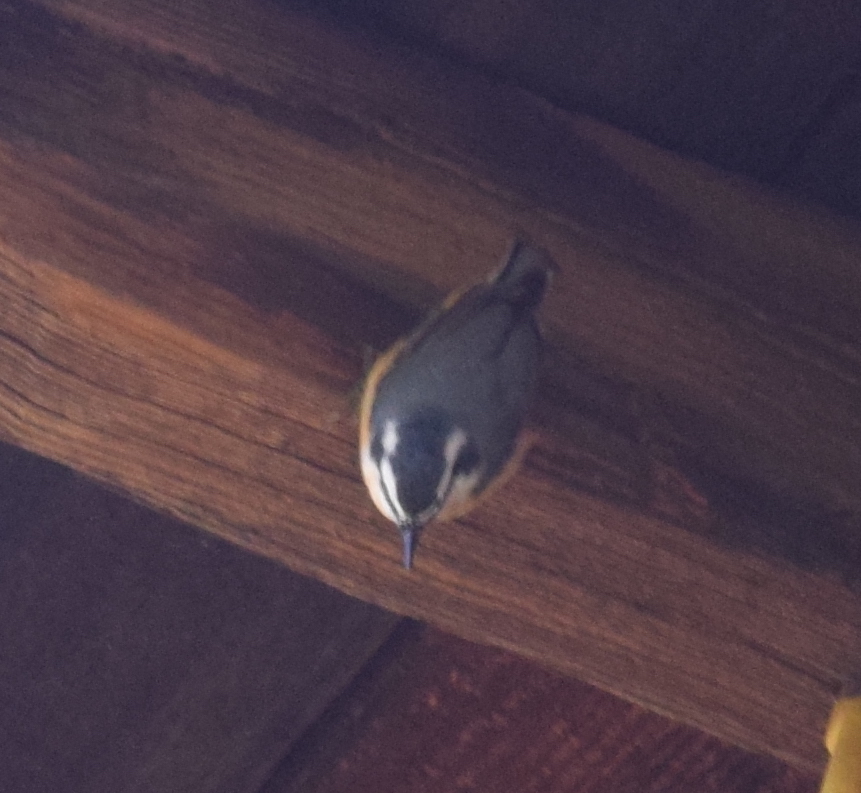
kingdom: Animalia
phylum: Chordata
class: Aves
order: Passeriformes
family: Sittidae
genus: Sitta
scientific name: Sitta canadensis
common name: Red-breasted nuthatch
